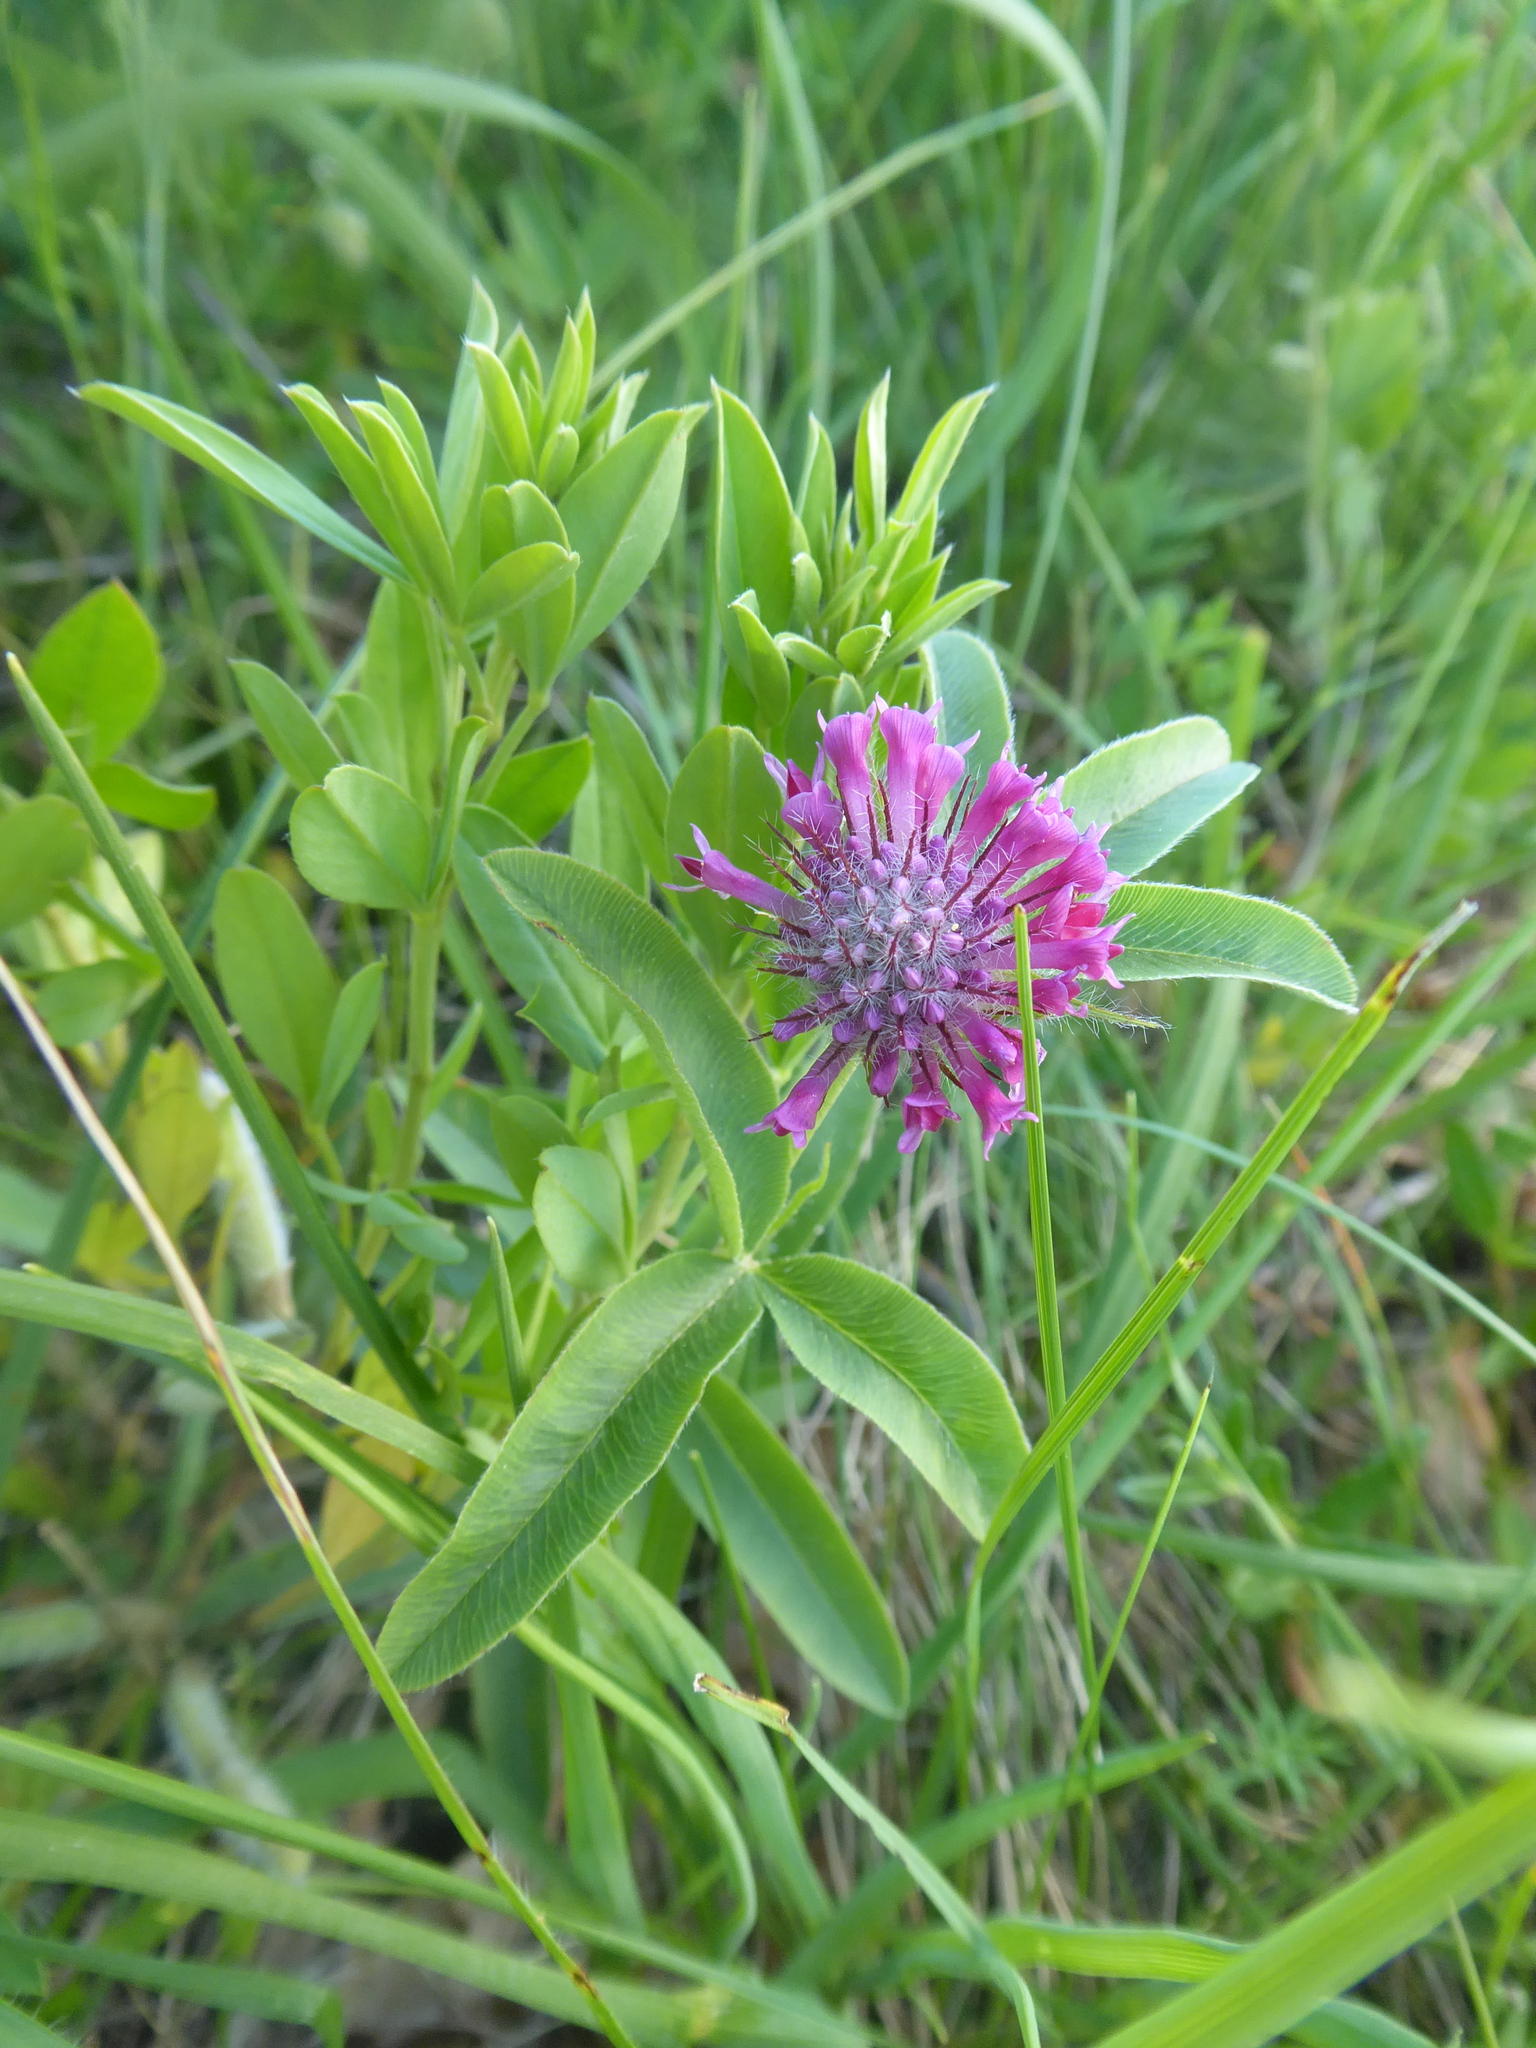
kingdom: Plantae
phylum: Tracheophyta
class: Magnoliopsida
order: Fabales
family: Fabaceae
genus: Trifolium
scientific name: Trifolium alpestre
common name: Owl-head clover
